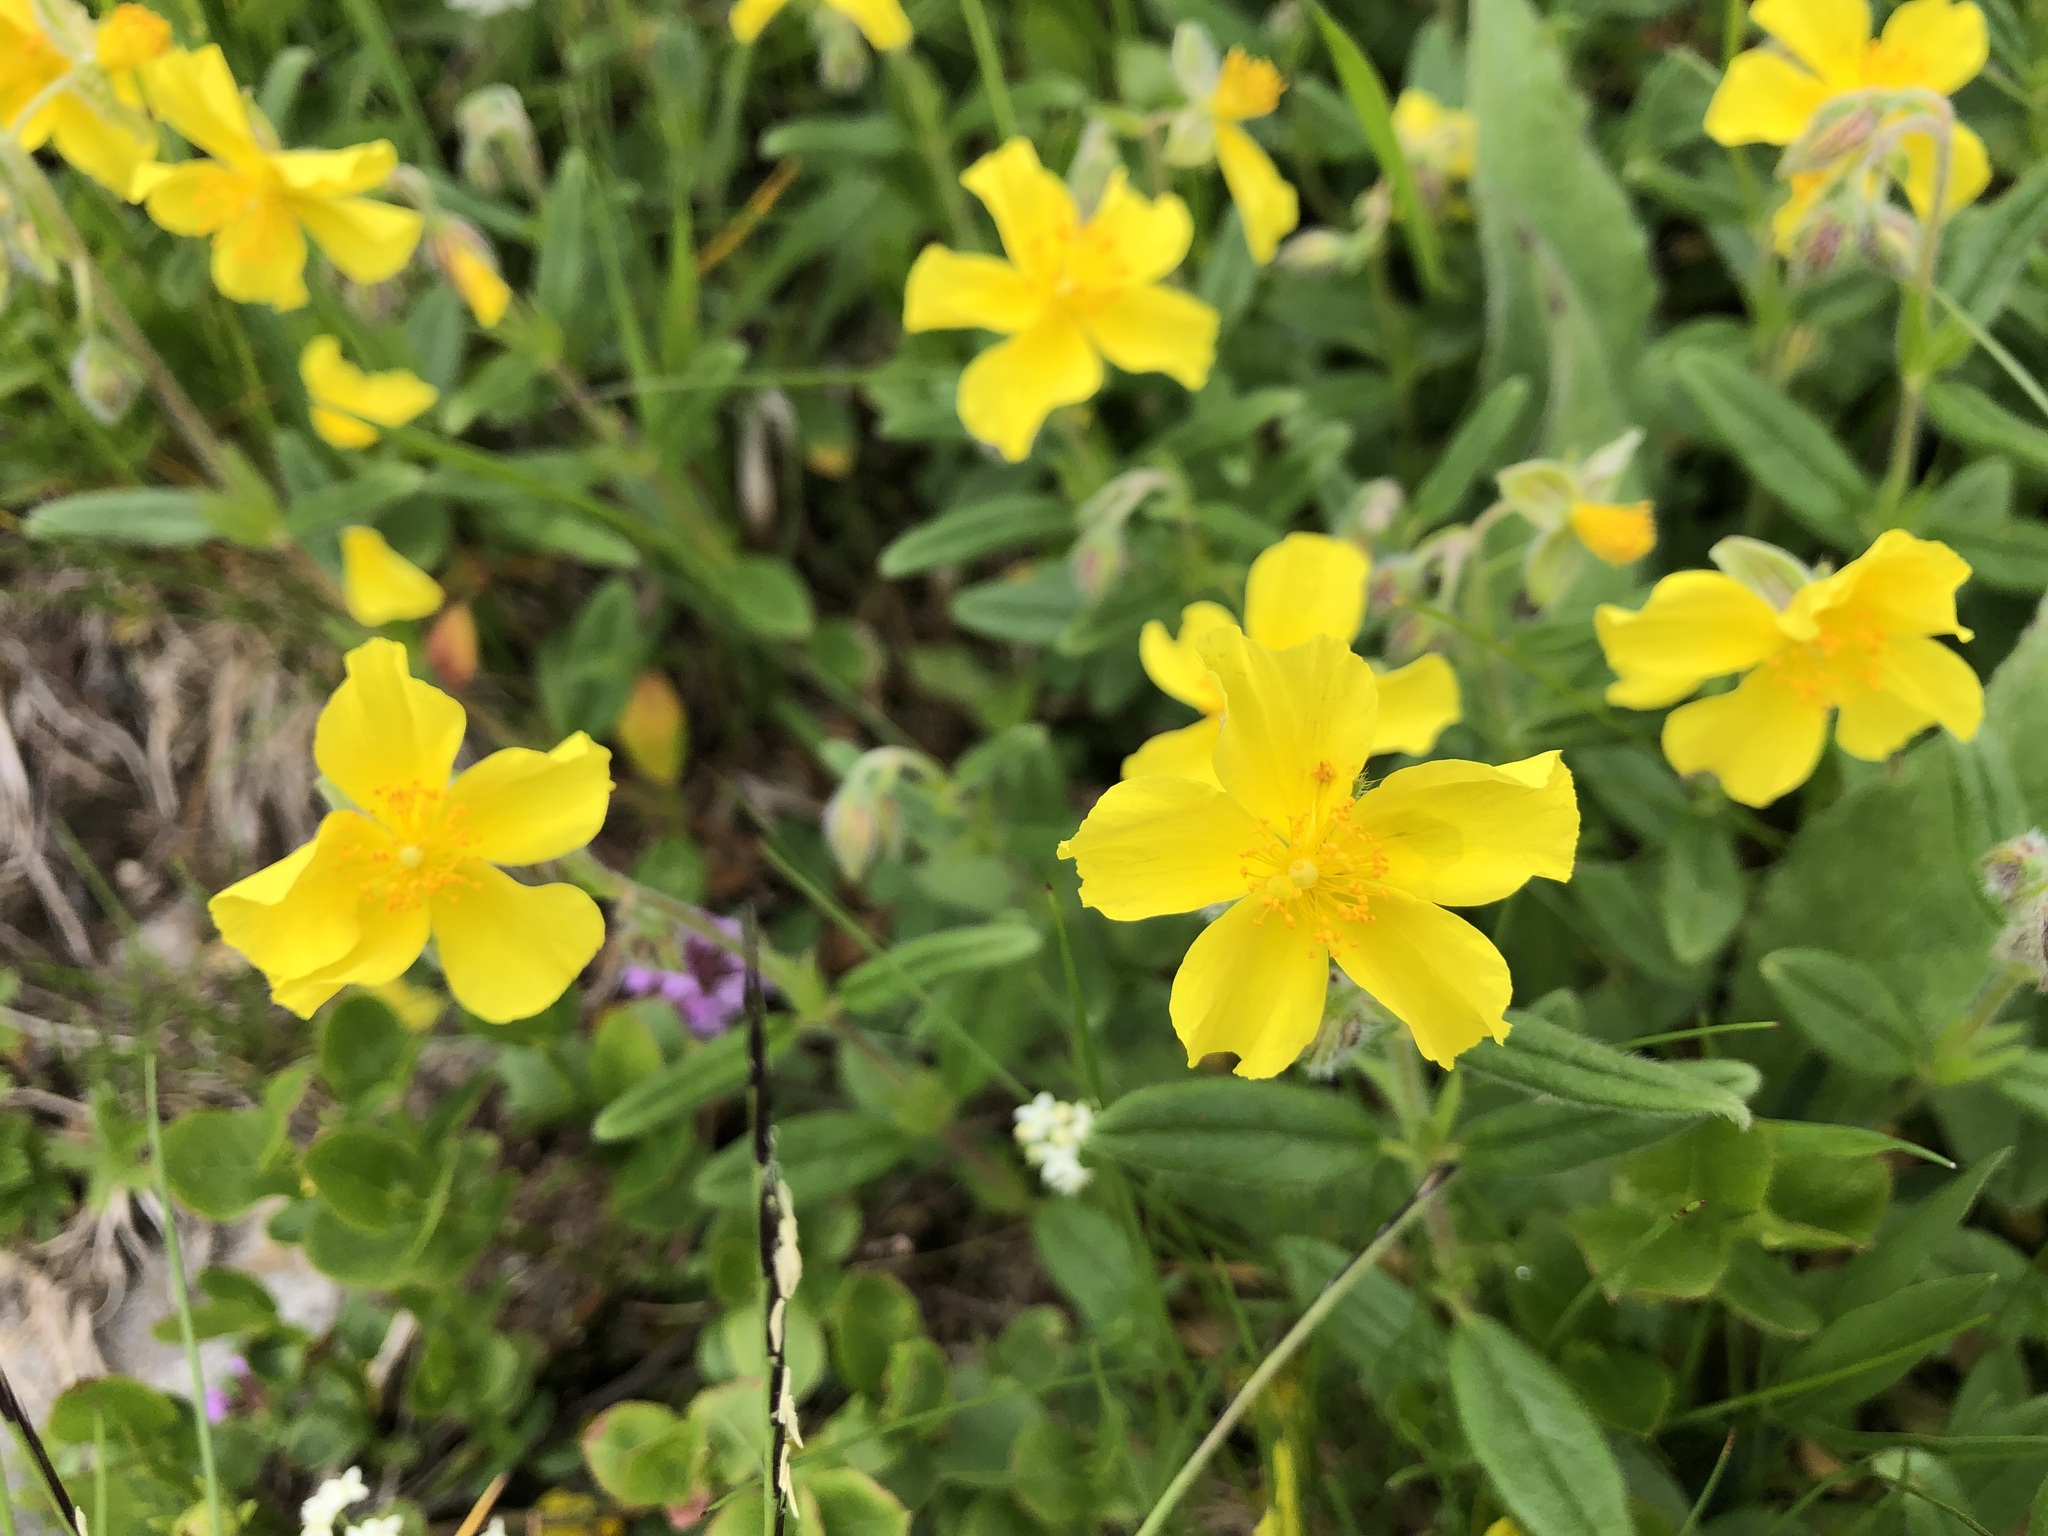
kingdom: Plantae
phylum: Tracheophyta
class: Magnoliopsida
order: Malvales
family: Cistaceae
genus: Helianthemum
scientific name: Helianthemum nummularium
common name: Common rock-rose
